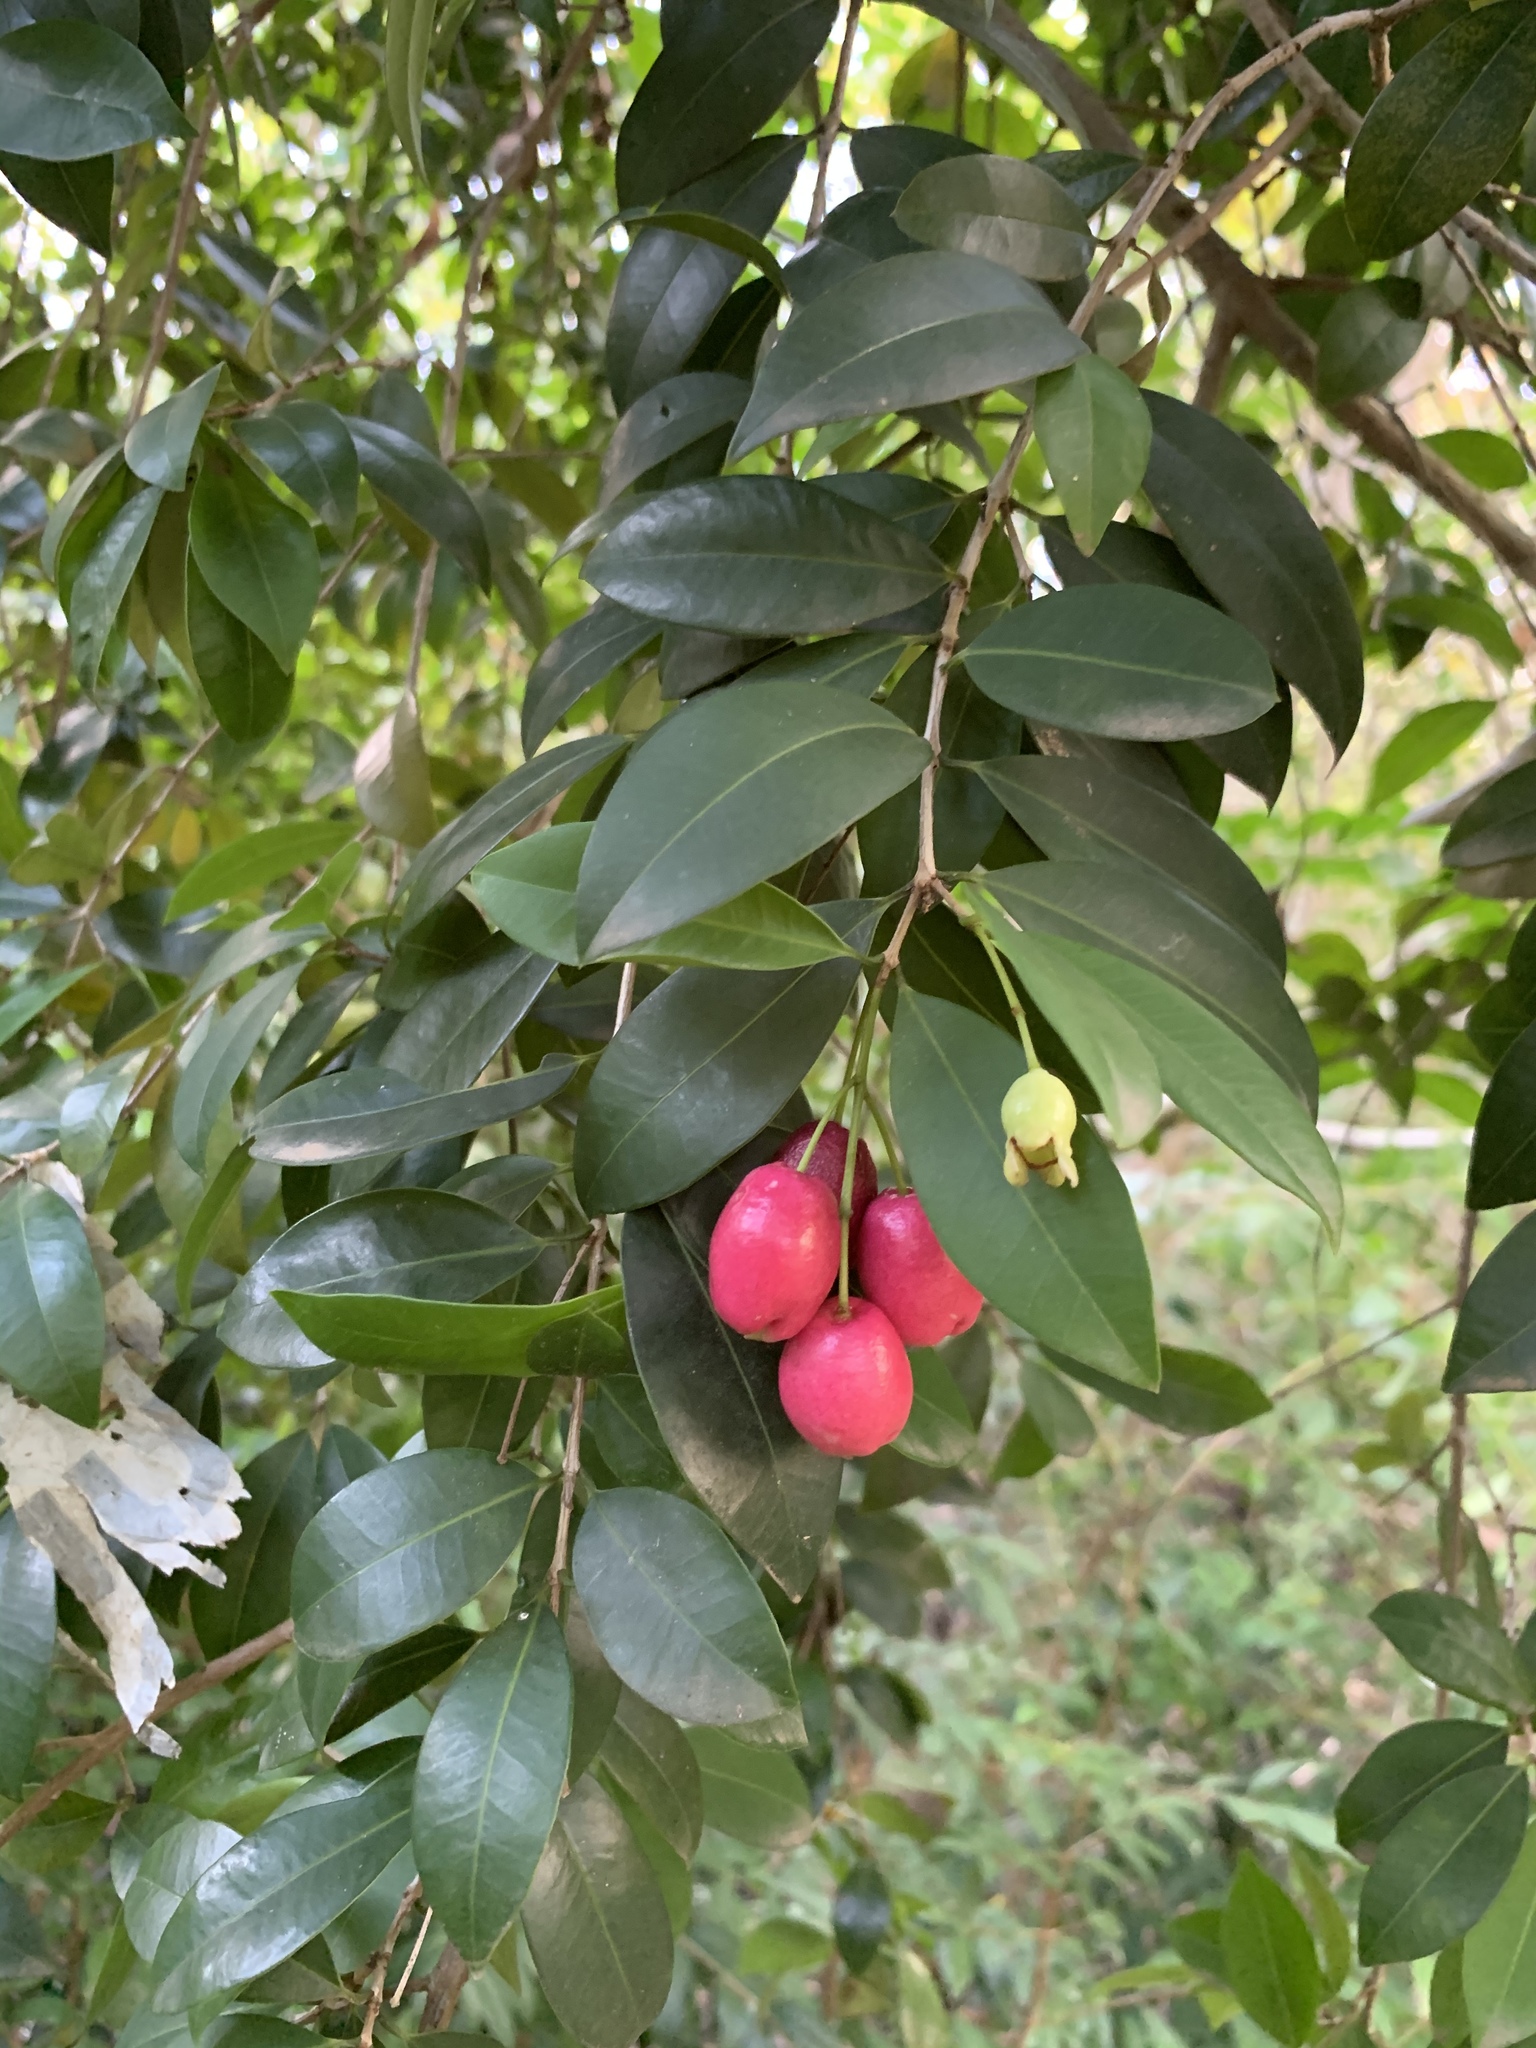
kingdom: Plantae
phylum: Tracheophyta
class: Magnoliopsida
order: Myrtales
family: Myrtaceae
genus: Syzygium
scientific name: Syzygium australe
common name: Australian brush-cherry
